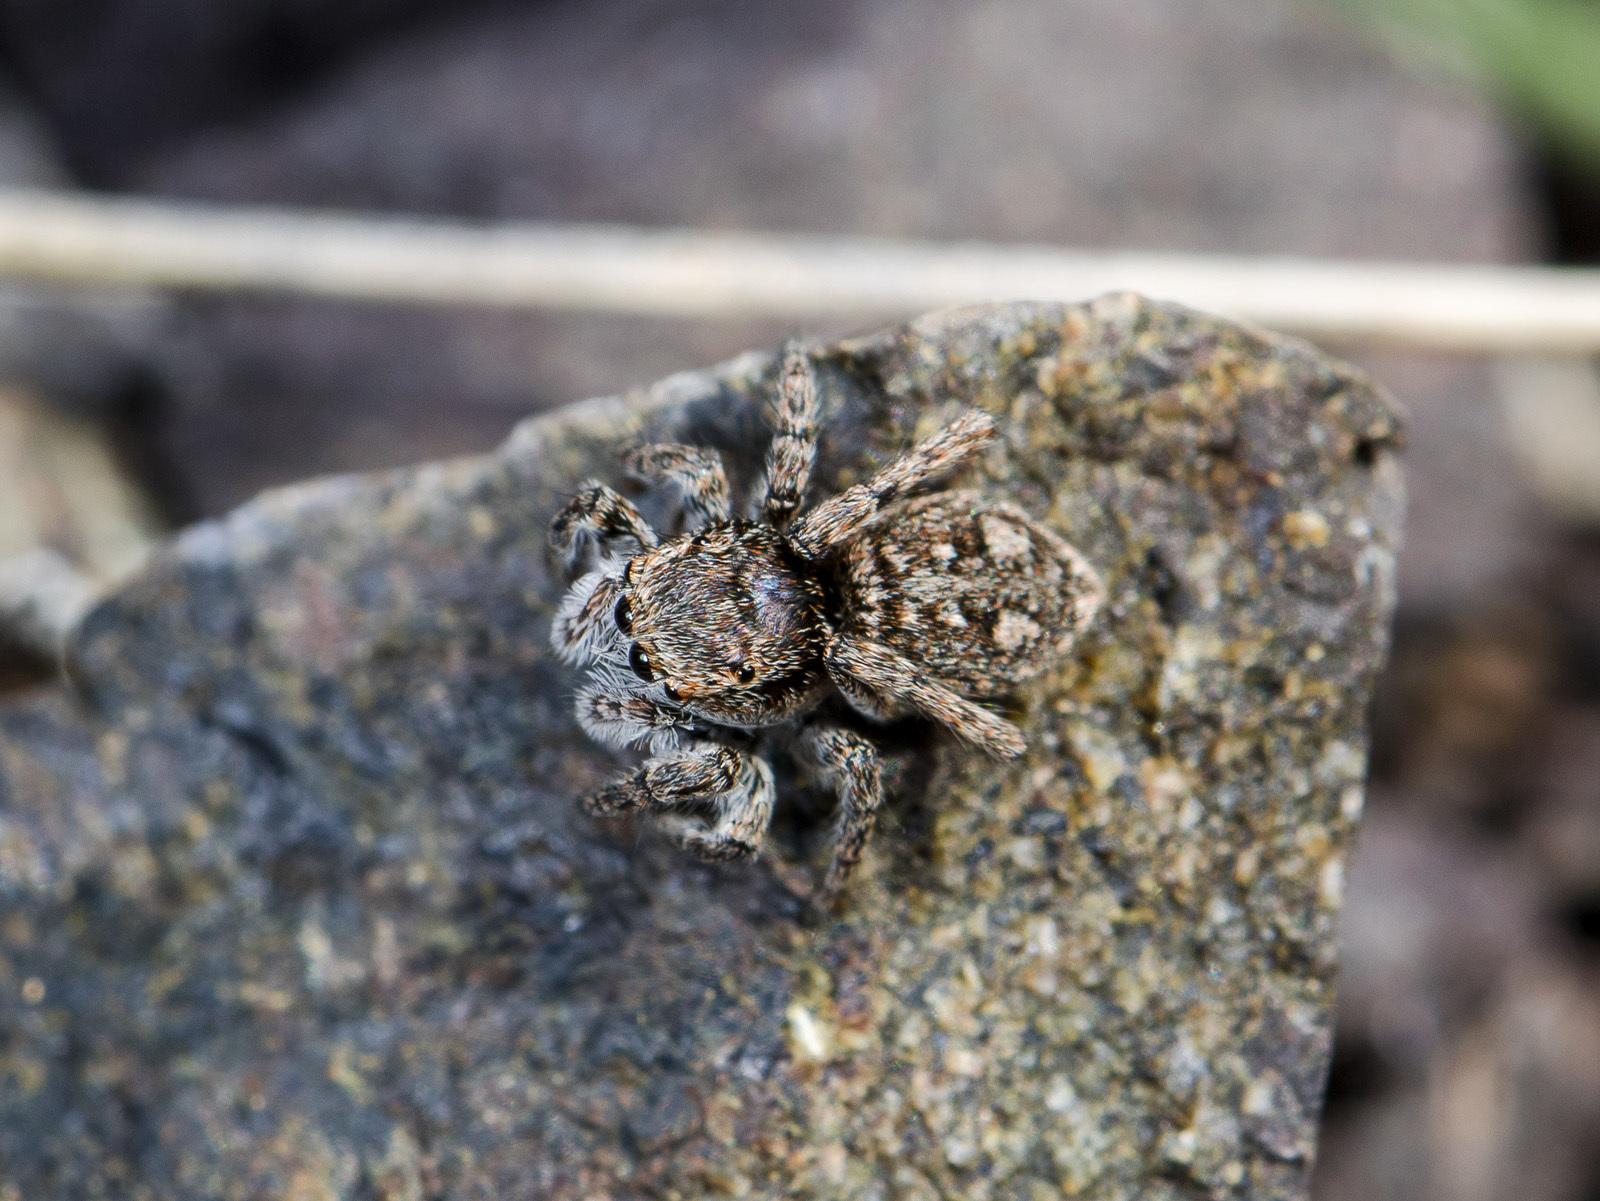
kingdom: Animalia
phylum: Arthropoda
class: Arachnida
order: Araneae
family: Salticidae
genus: Attulus
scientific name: Attulus mirandus
